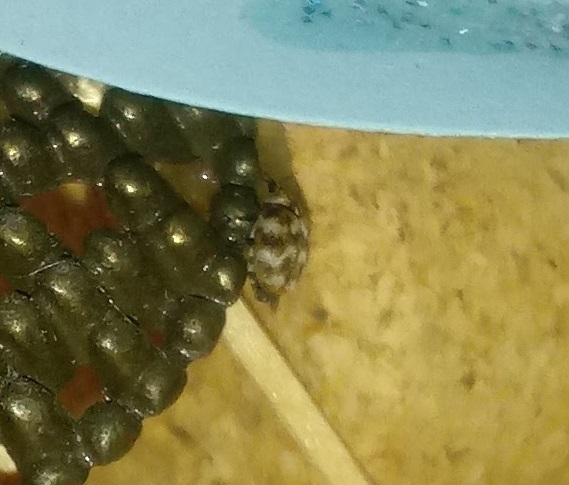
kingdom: Animalia
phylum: Arthropoda
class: Insecta
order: Coleoptera
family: Dermestidae
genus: Anthrenus
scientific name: Anthrenus verbasci
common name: Varied carpet beetle
